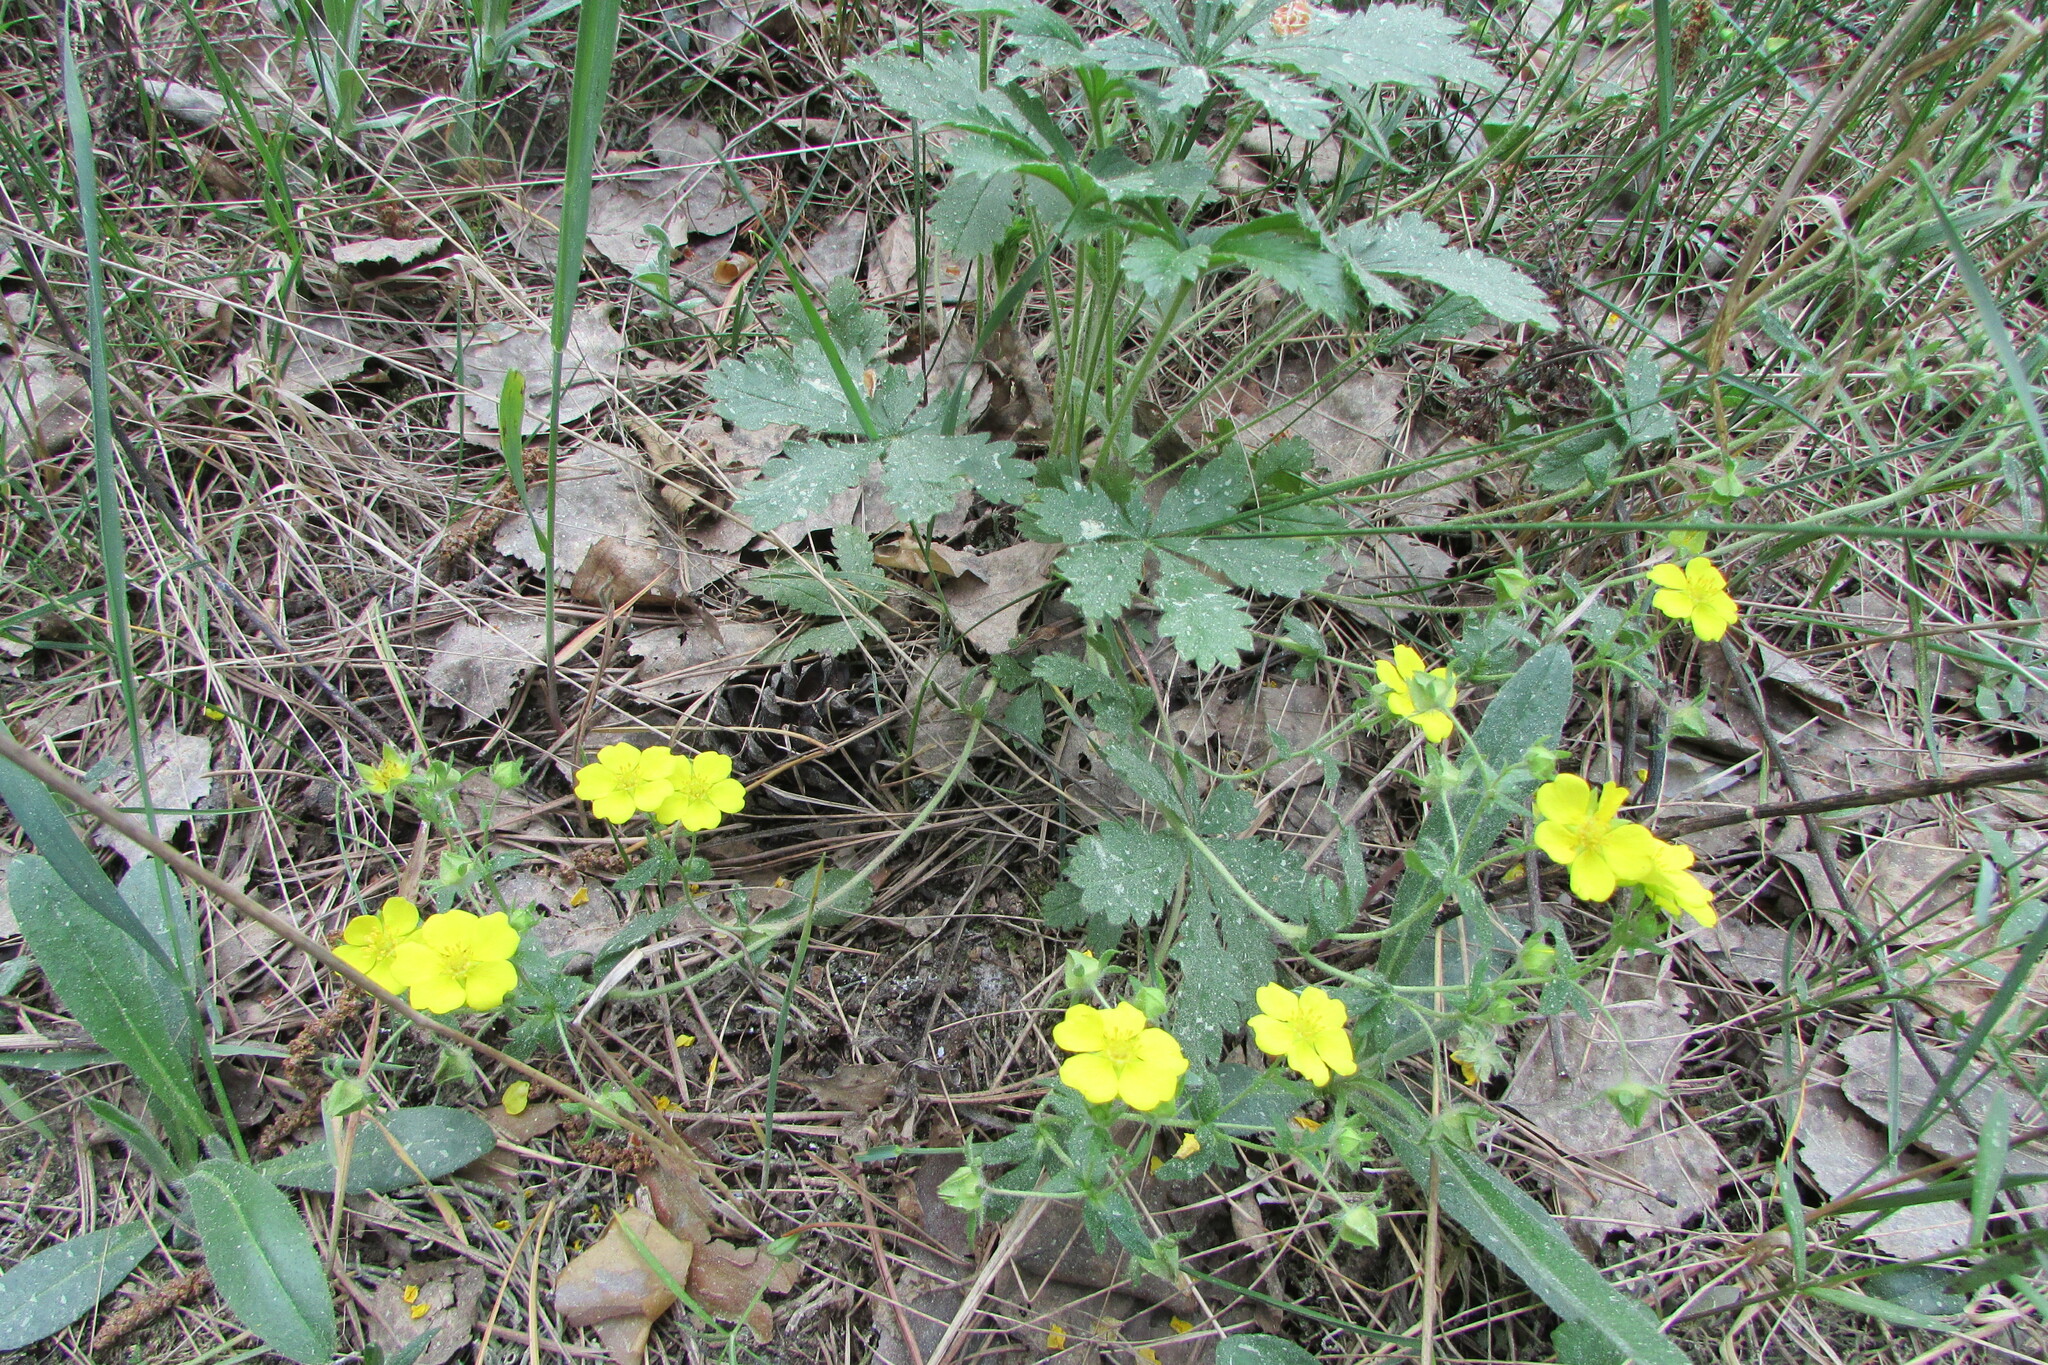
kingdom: Plantae
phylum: Tracheophyta
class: Magnoliopsida
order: Rosales
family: Rosaceae
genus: Potentilla
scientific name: Potentilla incana
